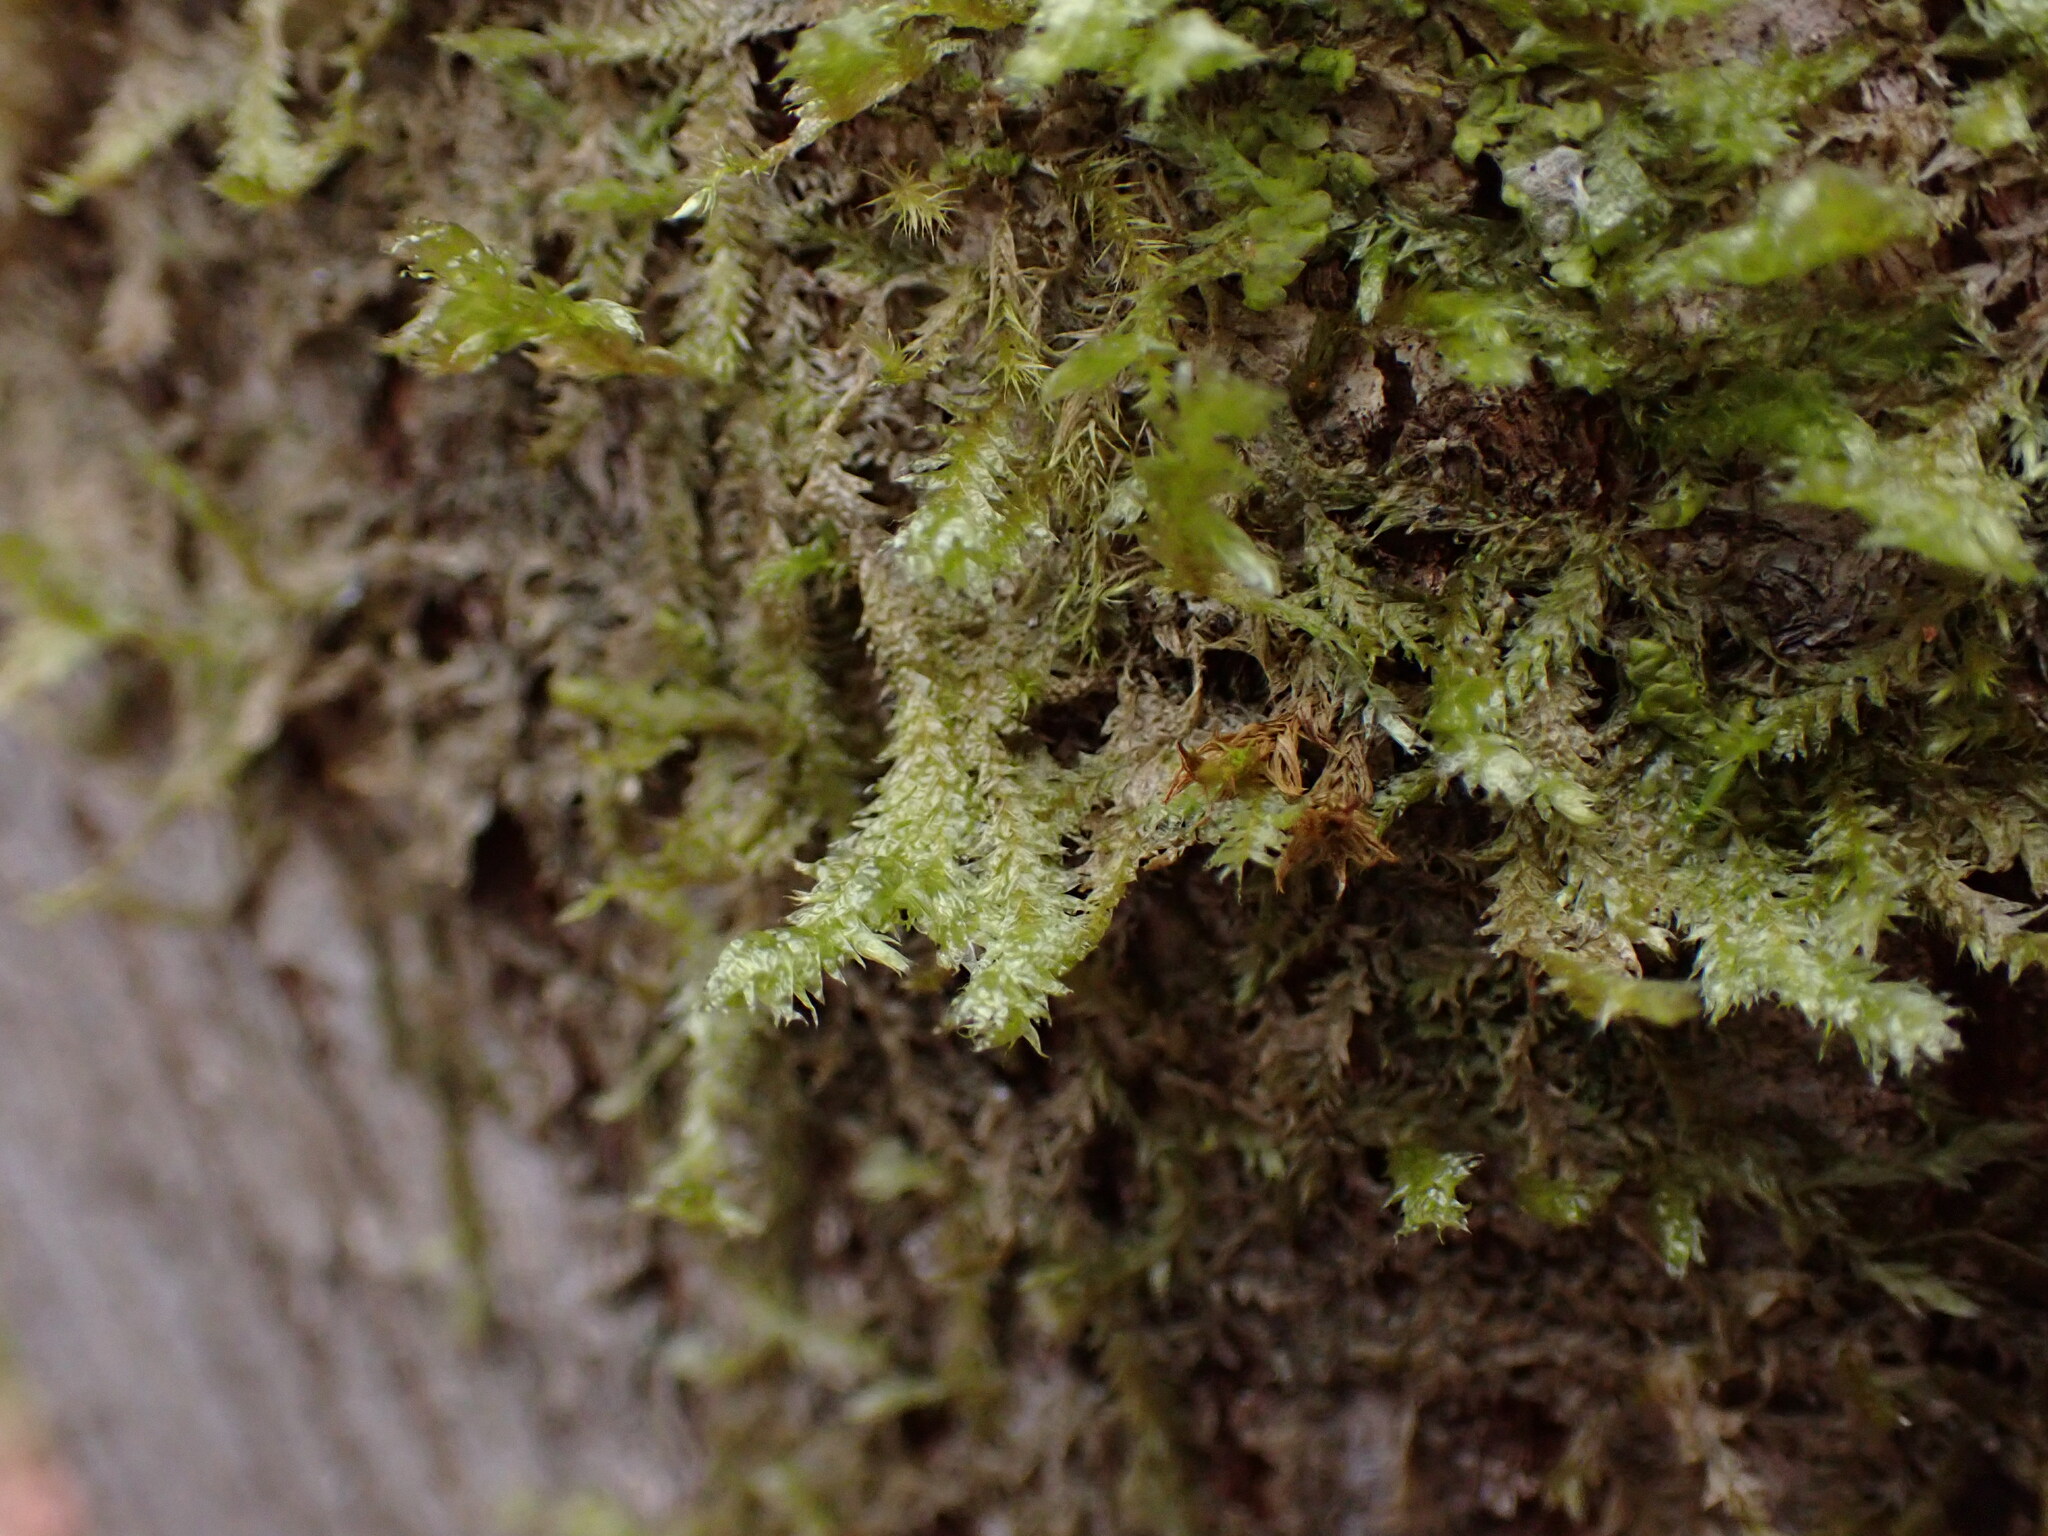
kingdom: Plantae
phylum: Bryophyta
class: Bryopsida
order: Hypnales
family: Neckeraceae
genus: Neckera
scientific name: Neckera douglasii
